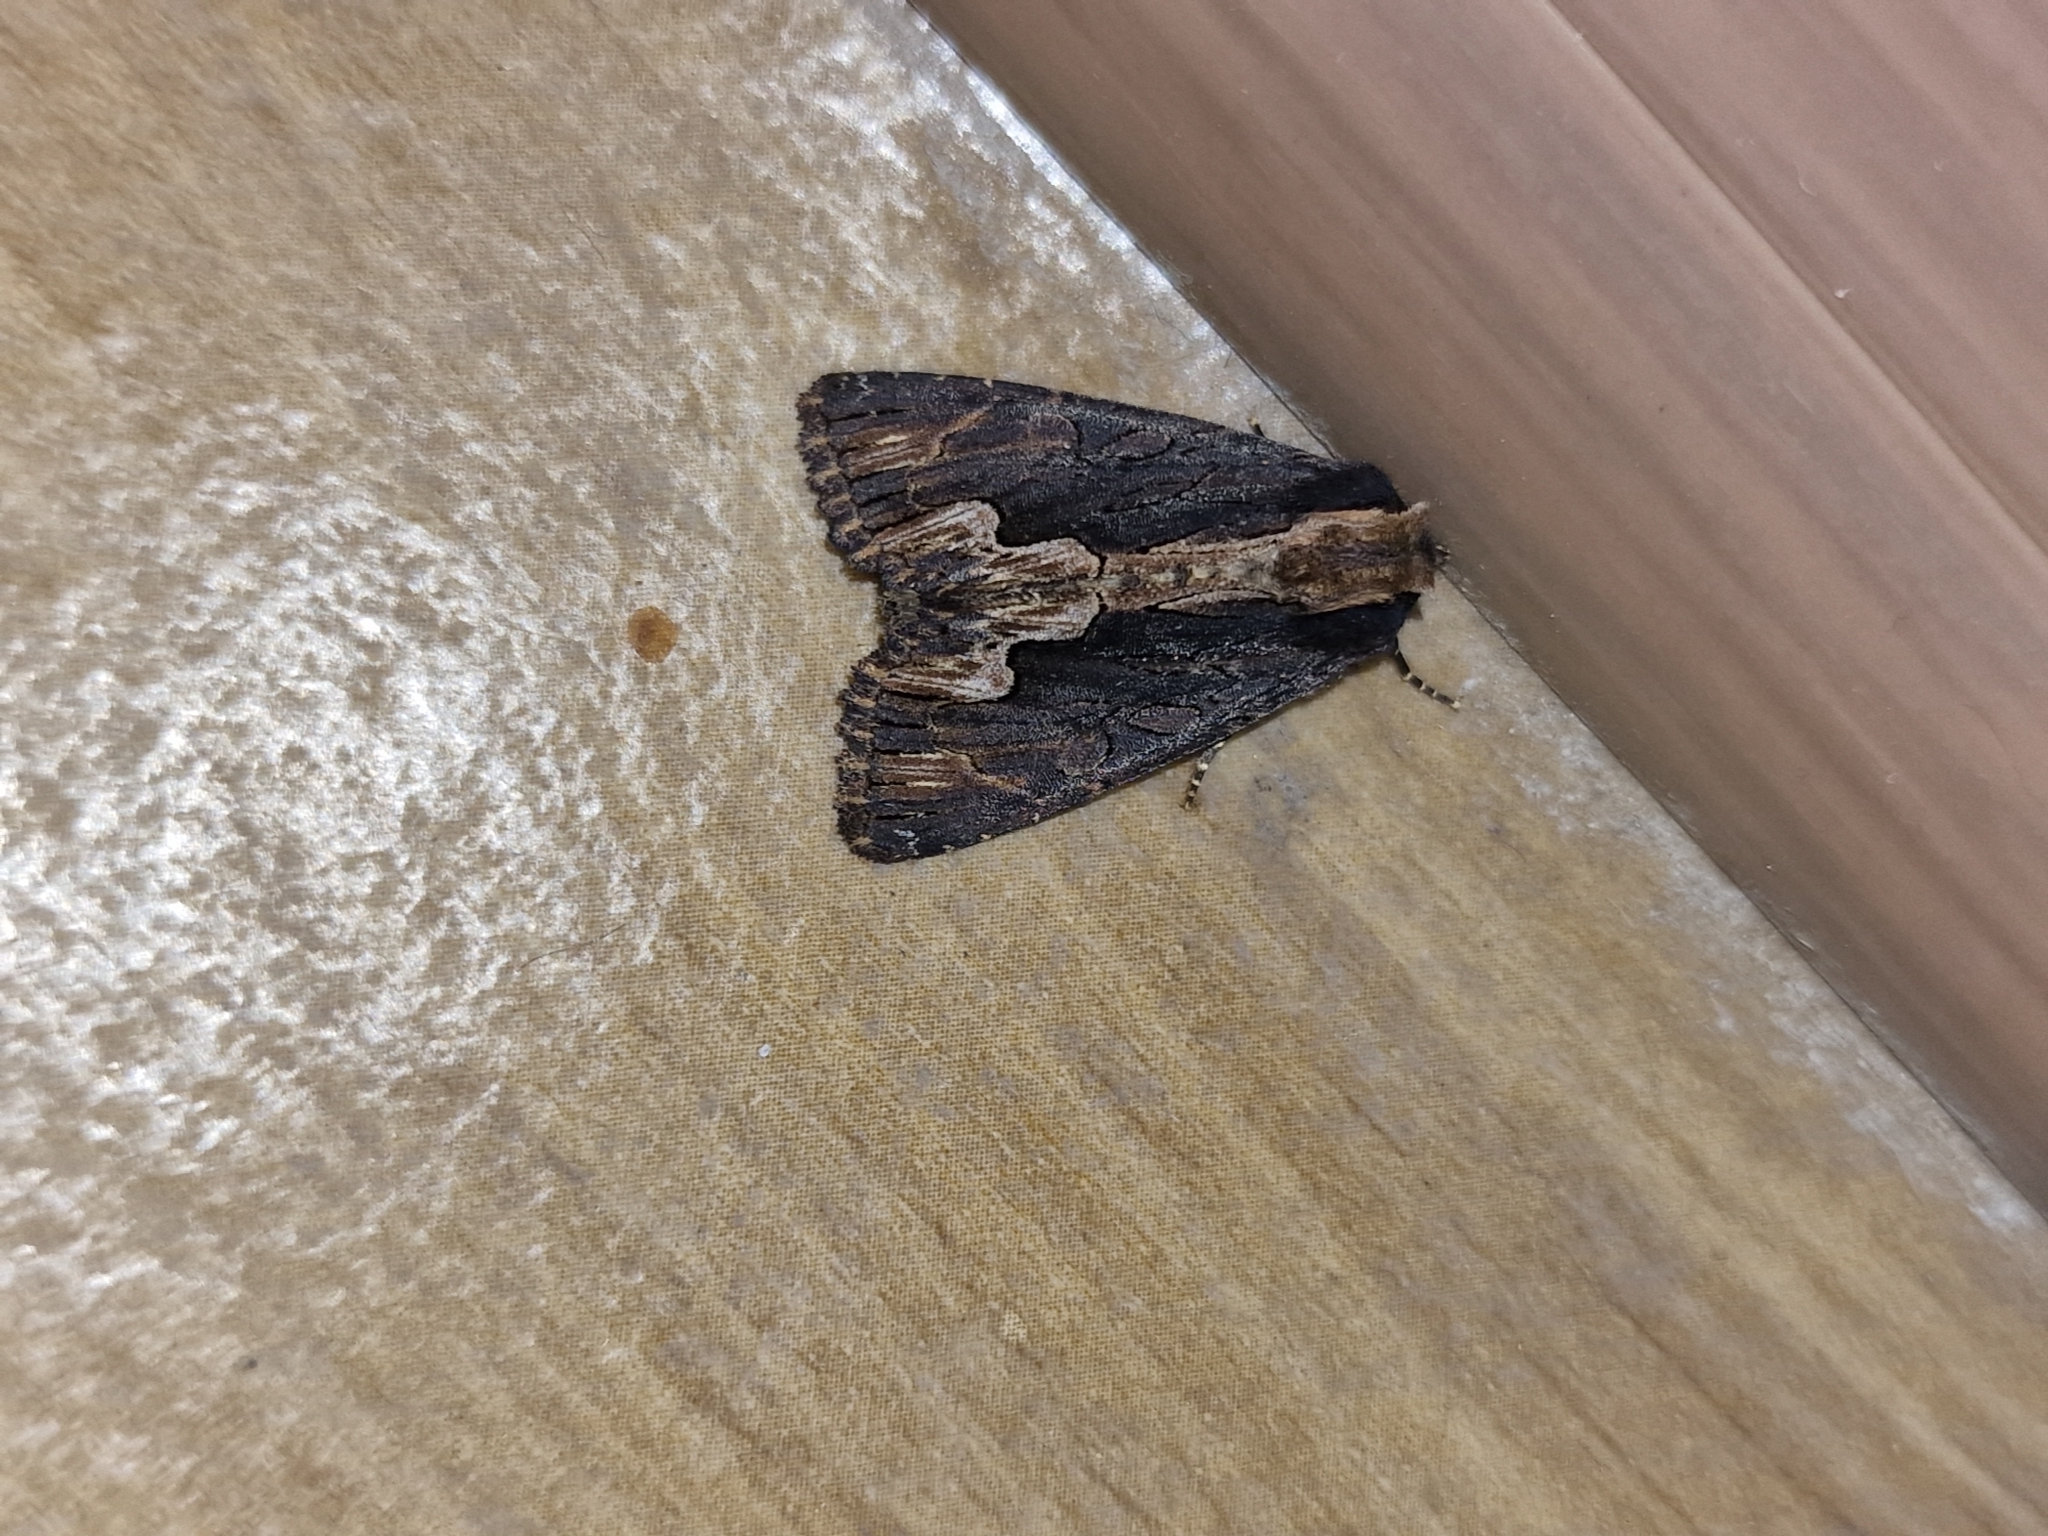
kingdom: Animalia
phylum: Arthropoda
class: Insecta
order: Lepidoptera
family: Noctuidae
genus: Dypterygia
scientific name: Dypterygia scabriuscula
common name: Bird's wing
